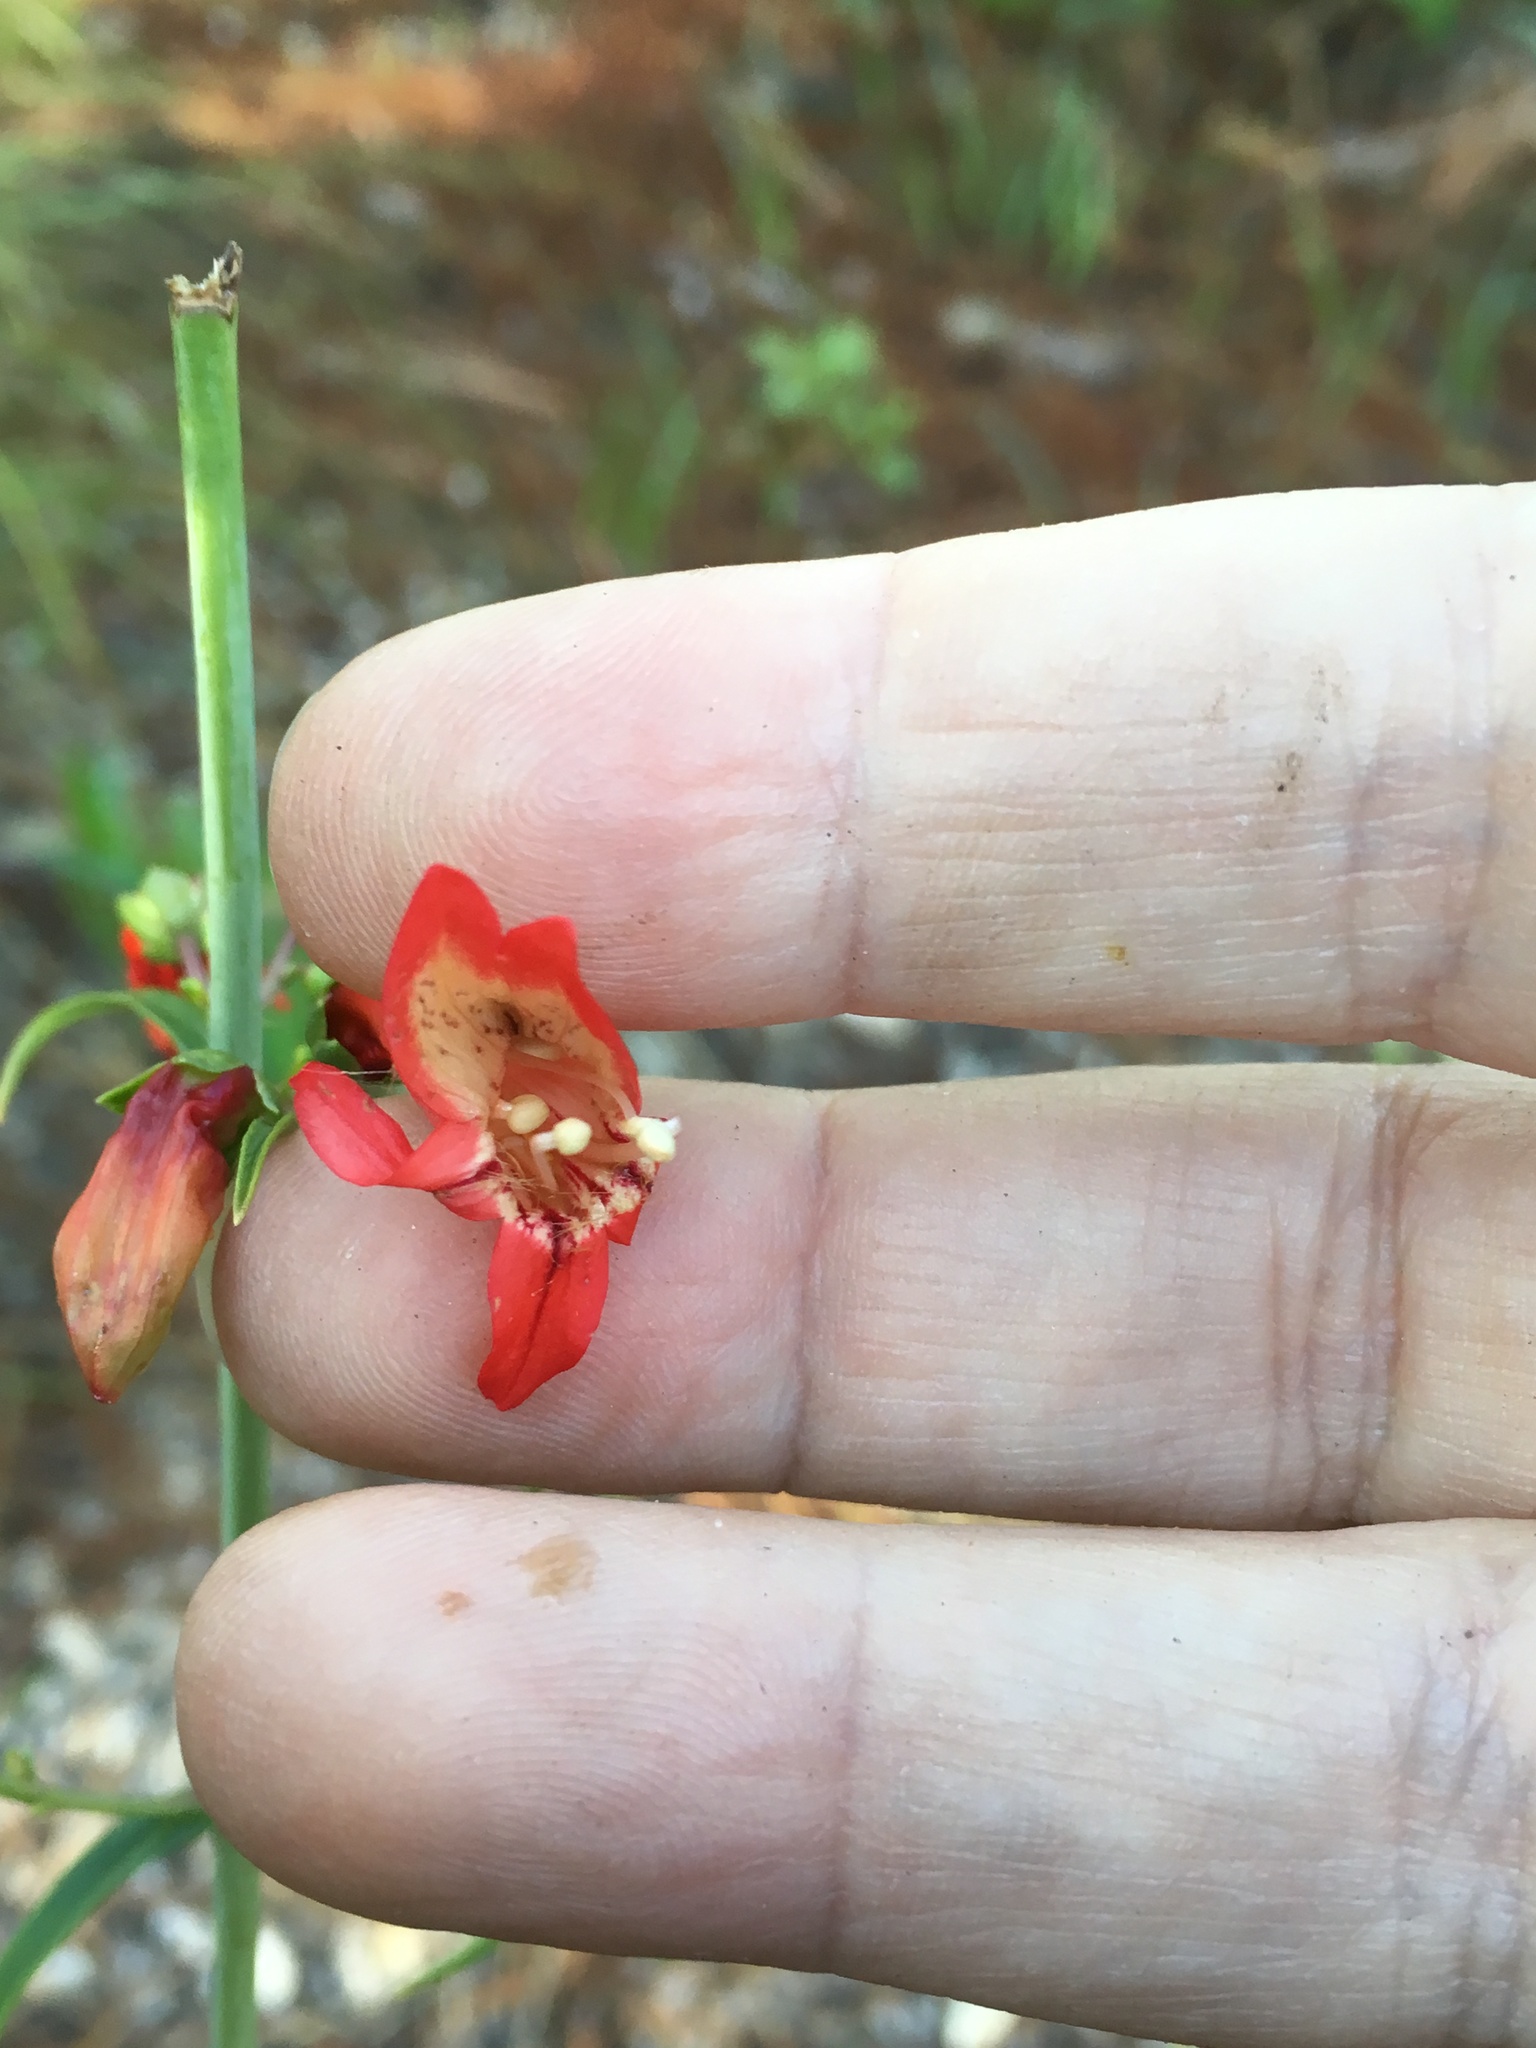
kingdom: Plantae
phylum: Tracheophyta
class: Magnoliopsida
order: Lamiales
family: Plantaginaceae
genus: Penstemon
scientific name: Penstemon barbatus
